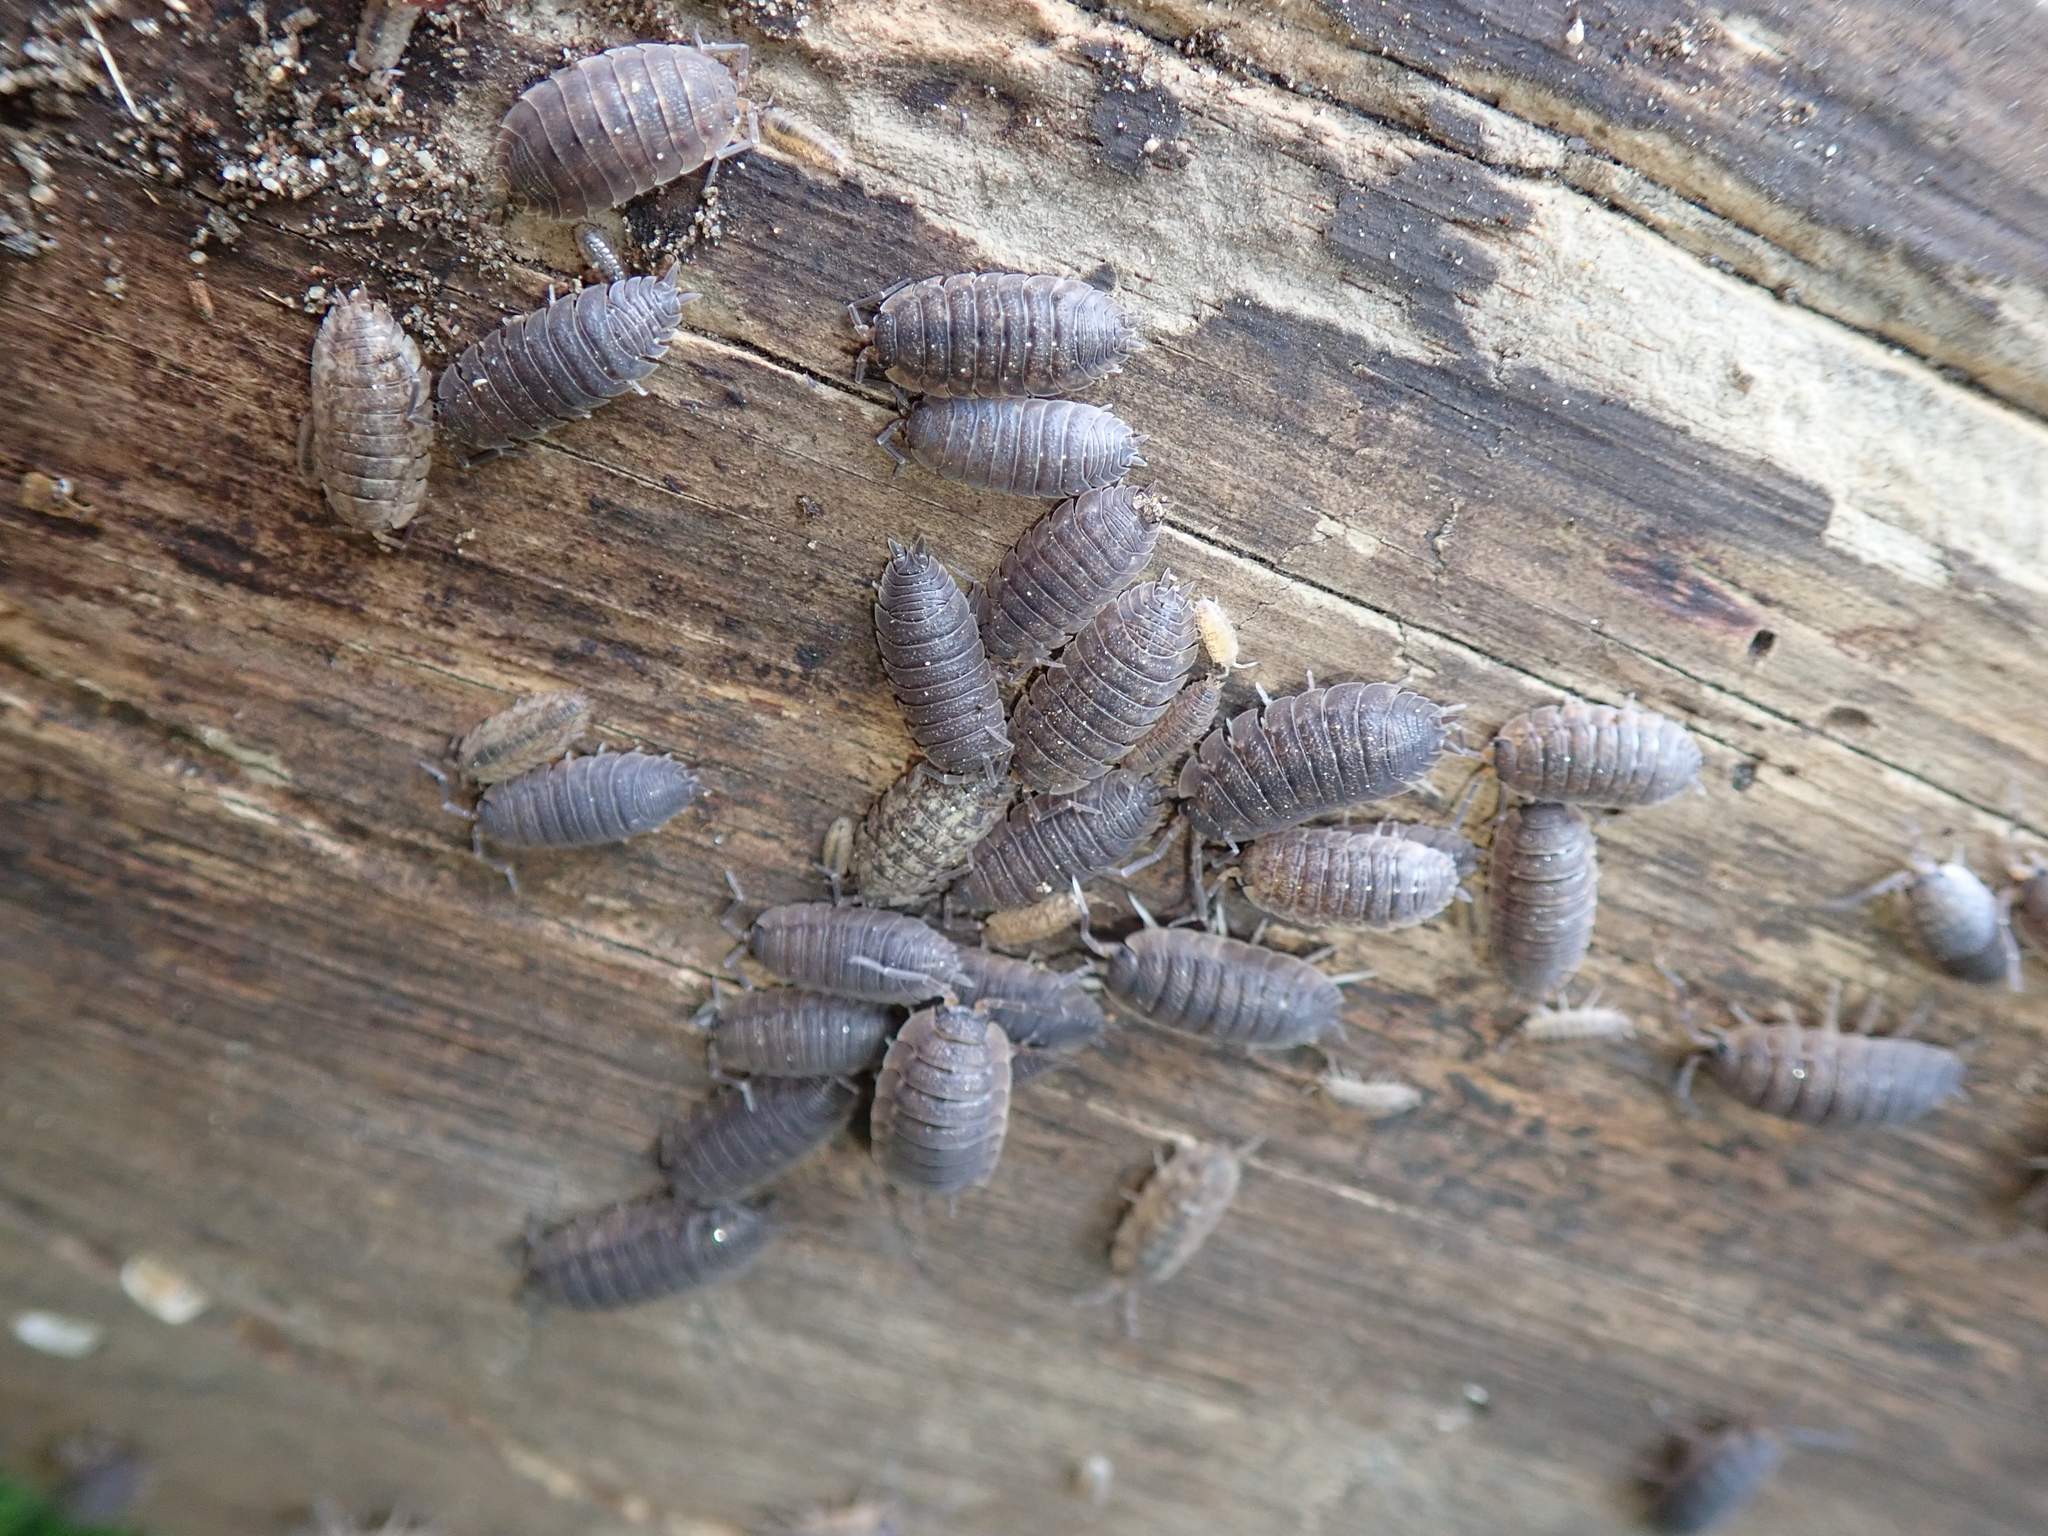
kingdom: Animalia
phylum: Arthropoda
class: Malacostraca
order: Isopoda
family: Porcellionidae
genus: Porcellio
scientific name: Porcellio scaber
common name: Common rough woodlouse
